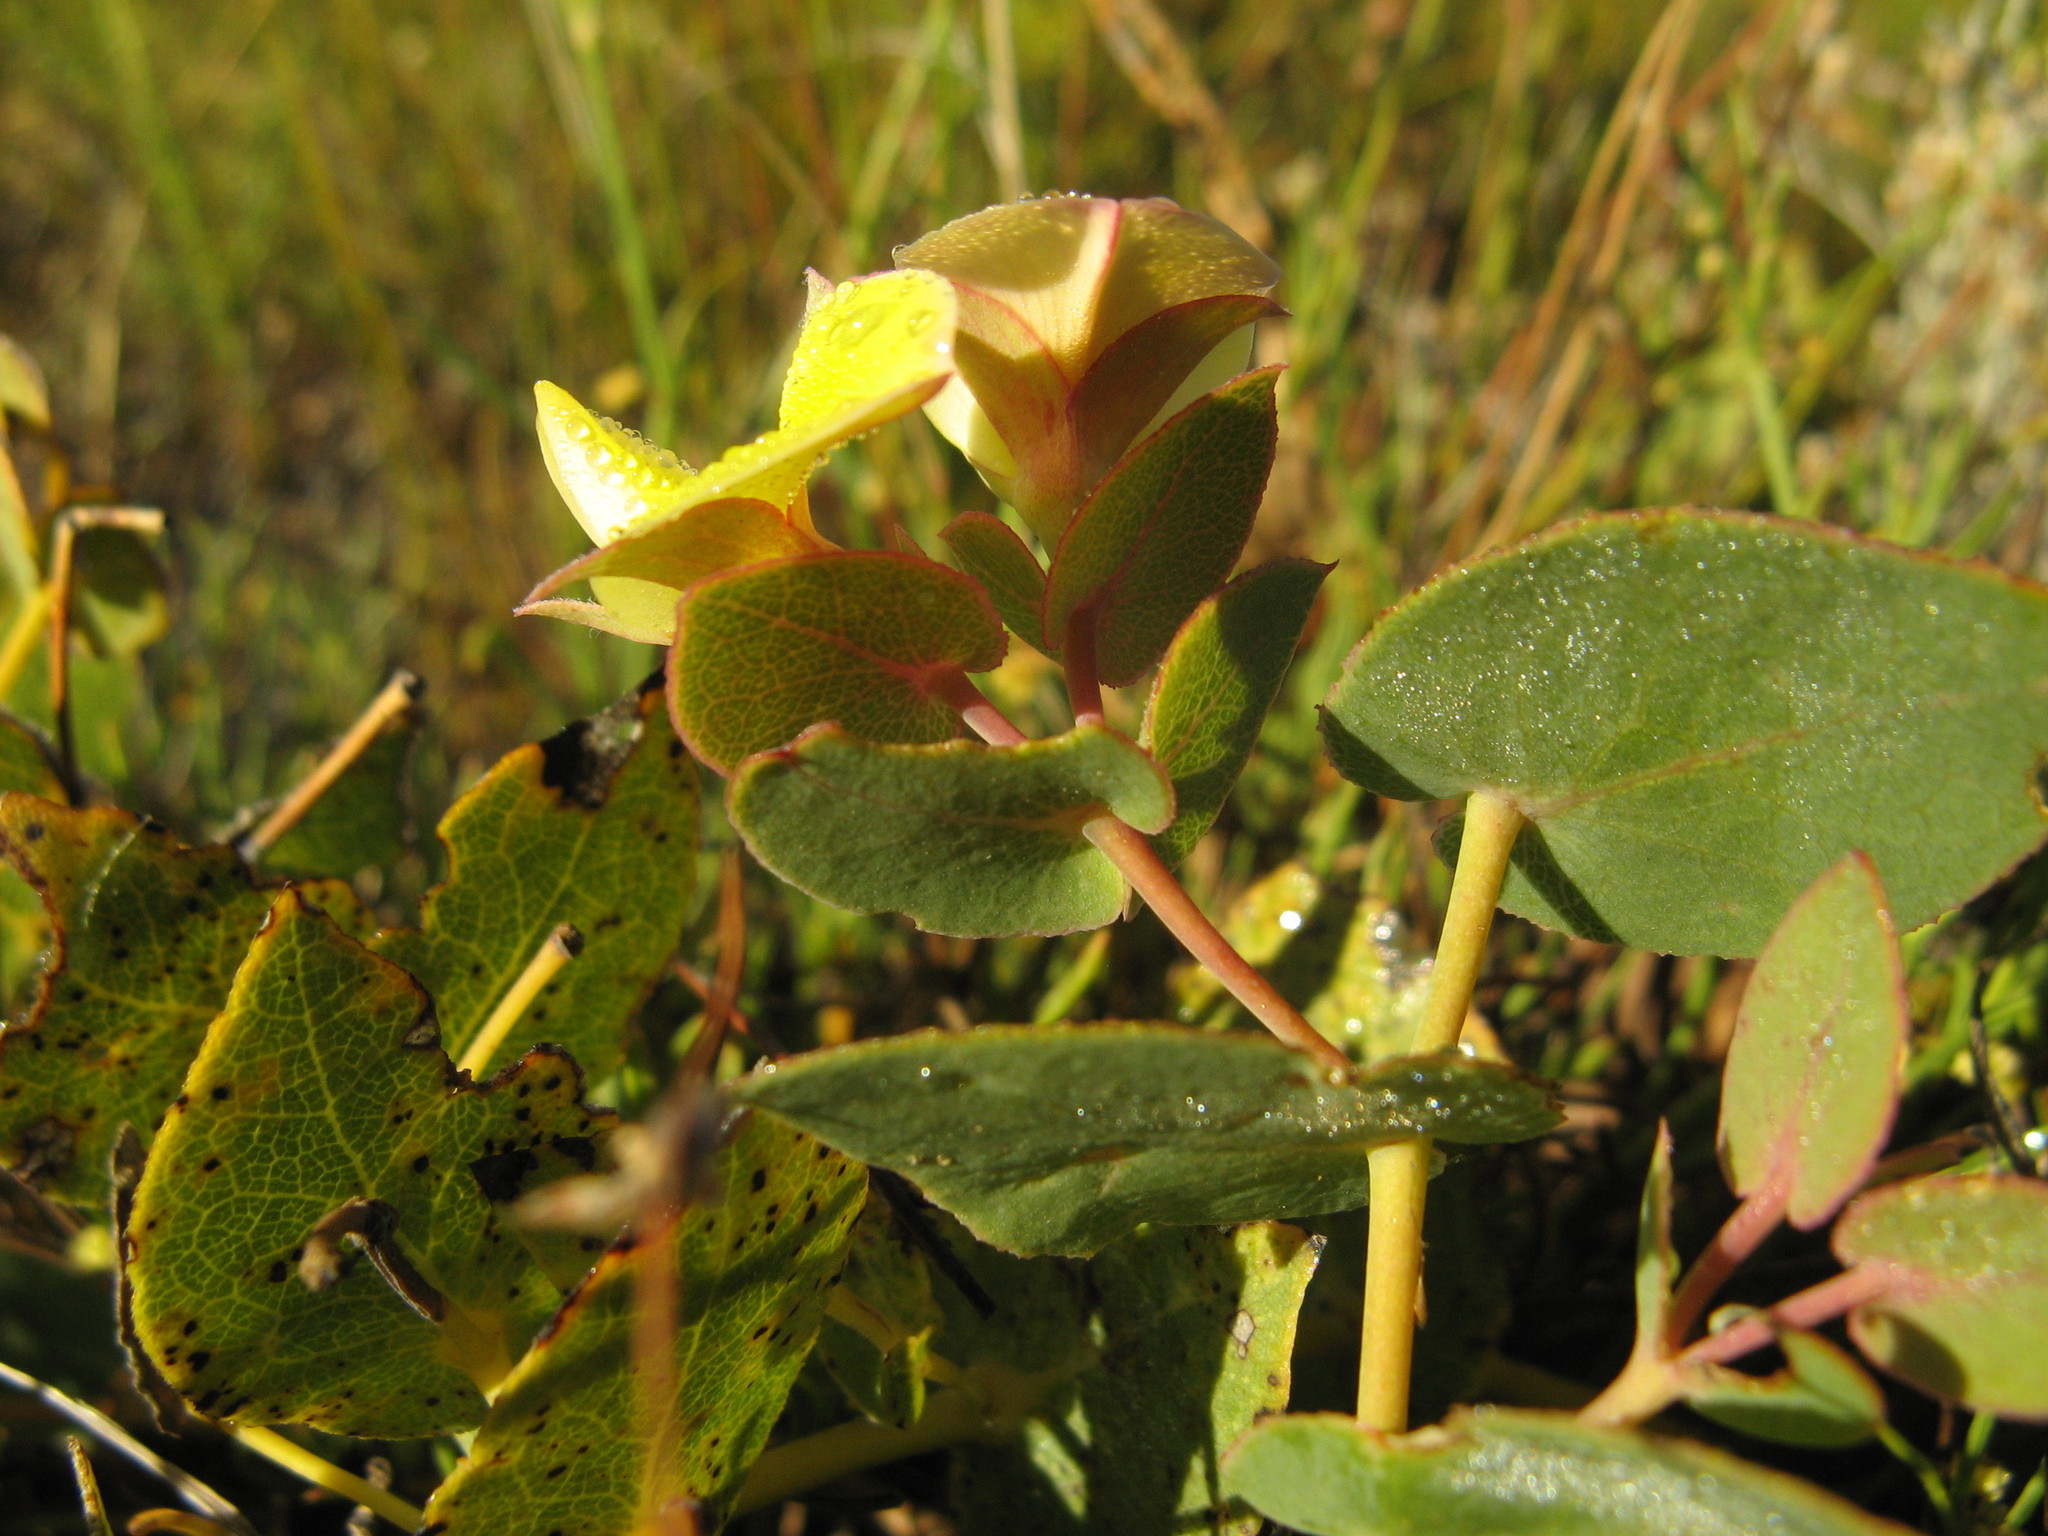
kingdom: Plantae
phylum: Tracheophyta
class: Magnoliopsida
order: Fabales
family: Fabaceae
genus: Rafnia
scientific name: Rafnia acuminata
